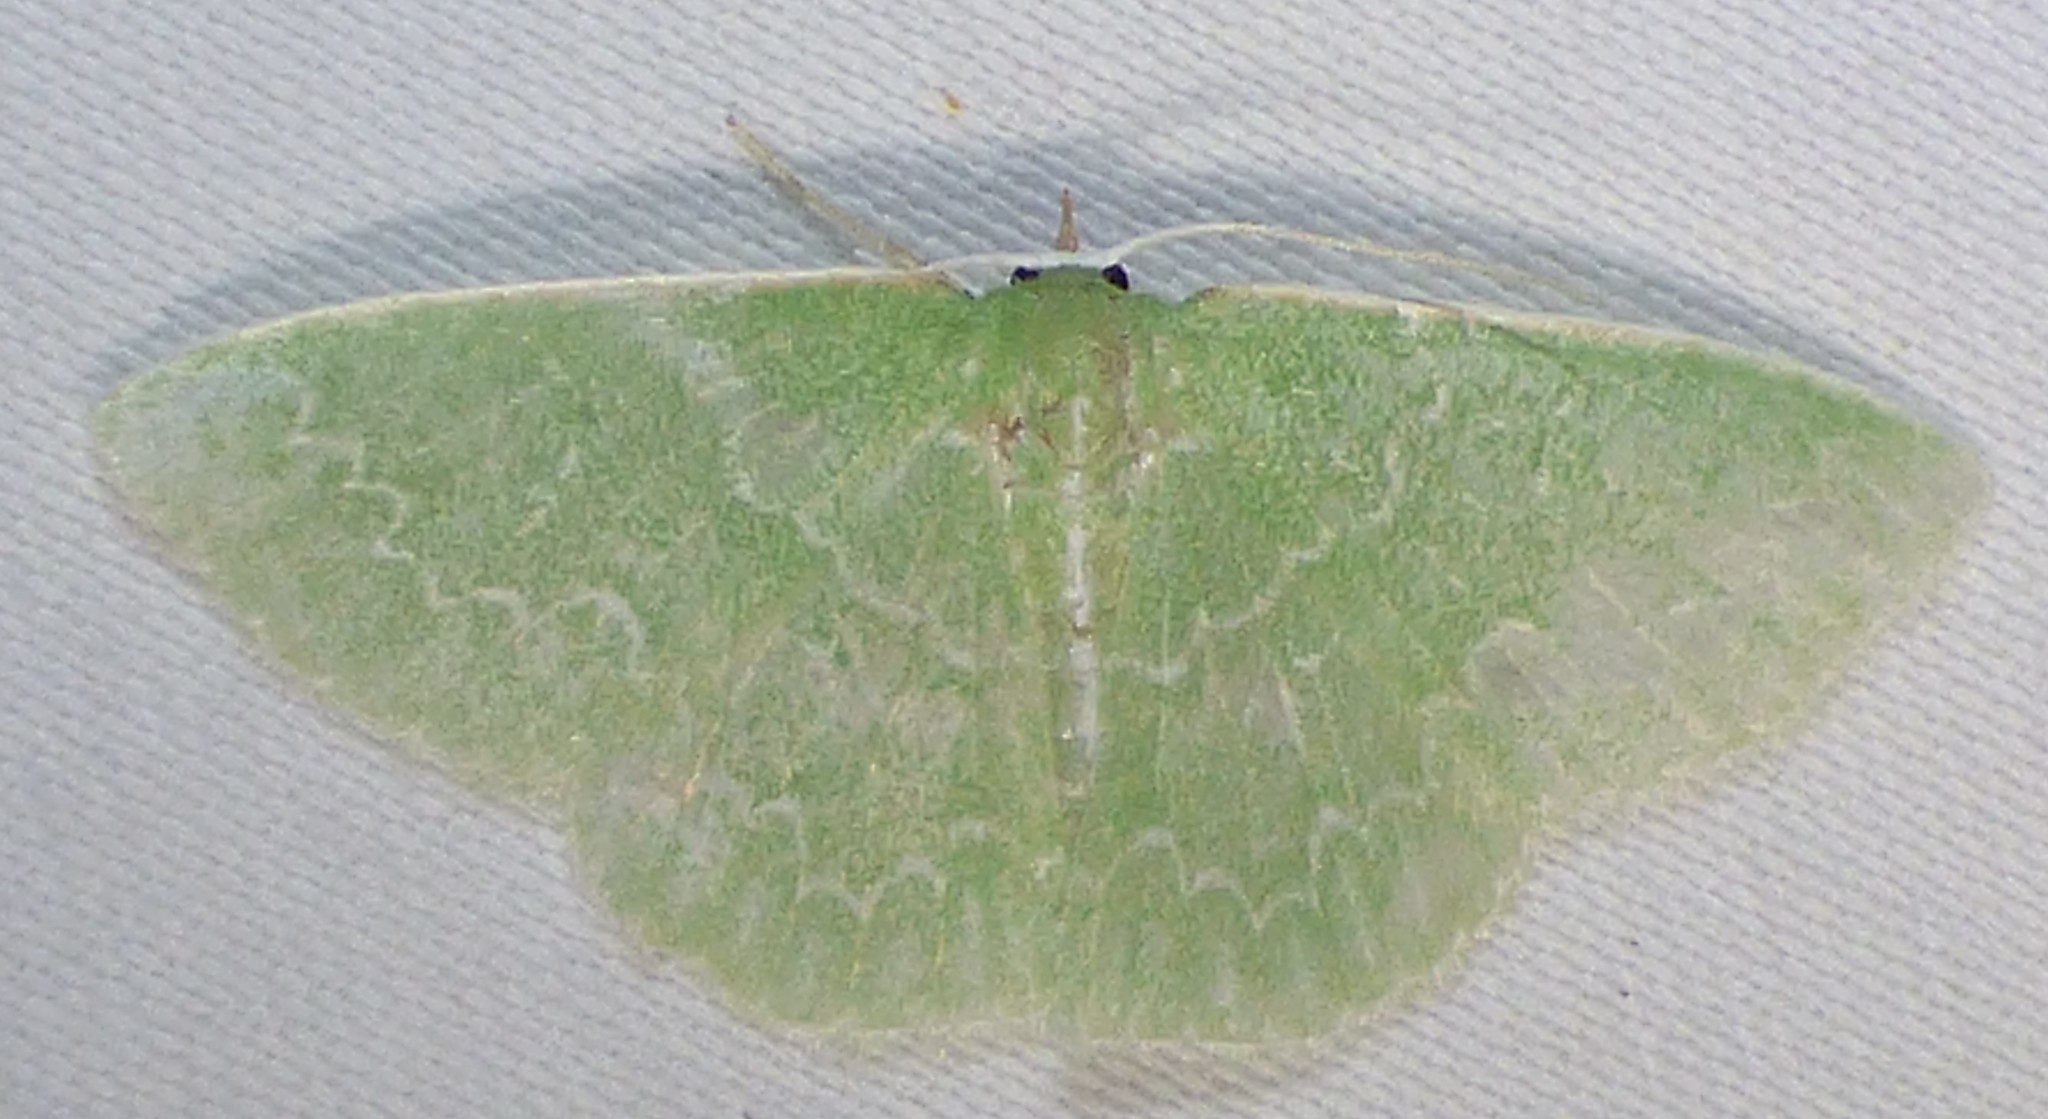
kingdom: Animalia
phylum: Arthropoda
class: Insecta
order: Lepidoptera
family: Geometridae
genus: Synchlora
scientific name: Synchlora frondaria
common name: Southern emerald
